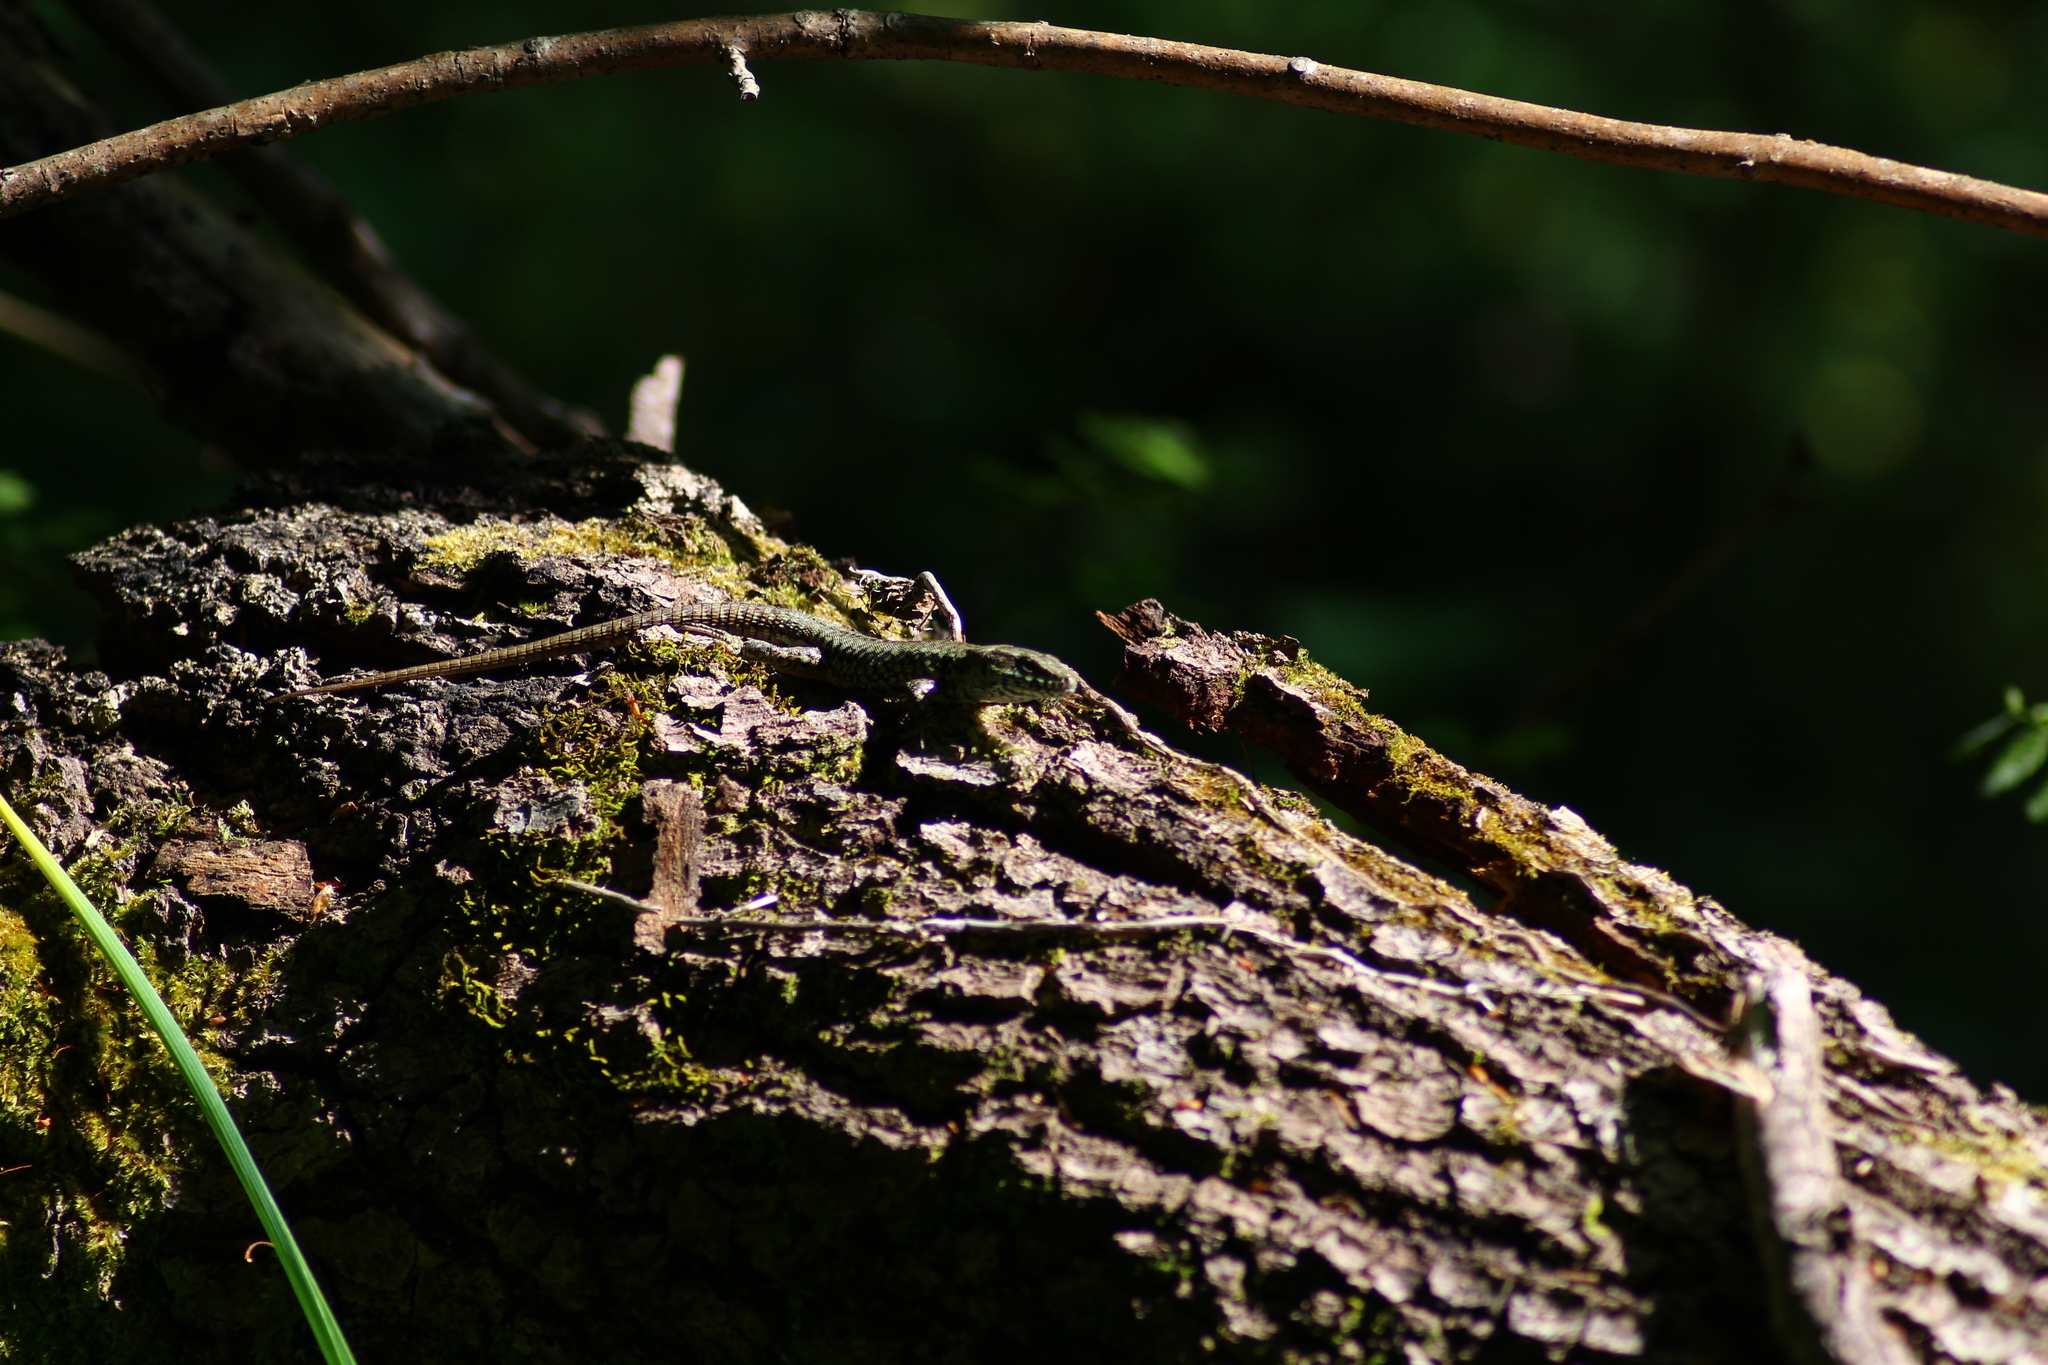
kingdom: Animalia
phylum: Chordata
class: Squamata
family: Lacertidae
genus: Podarcis
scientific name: Podarcis muralis
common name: Common wall lizard
